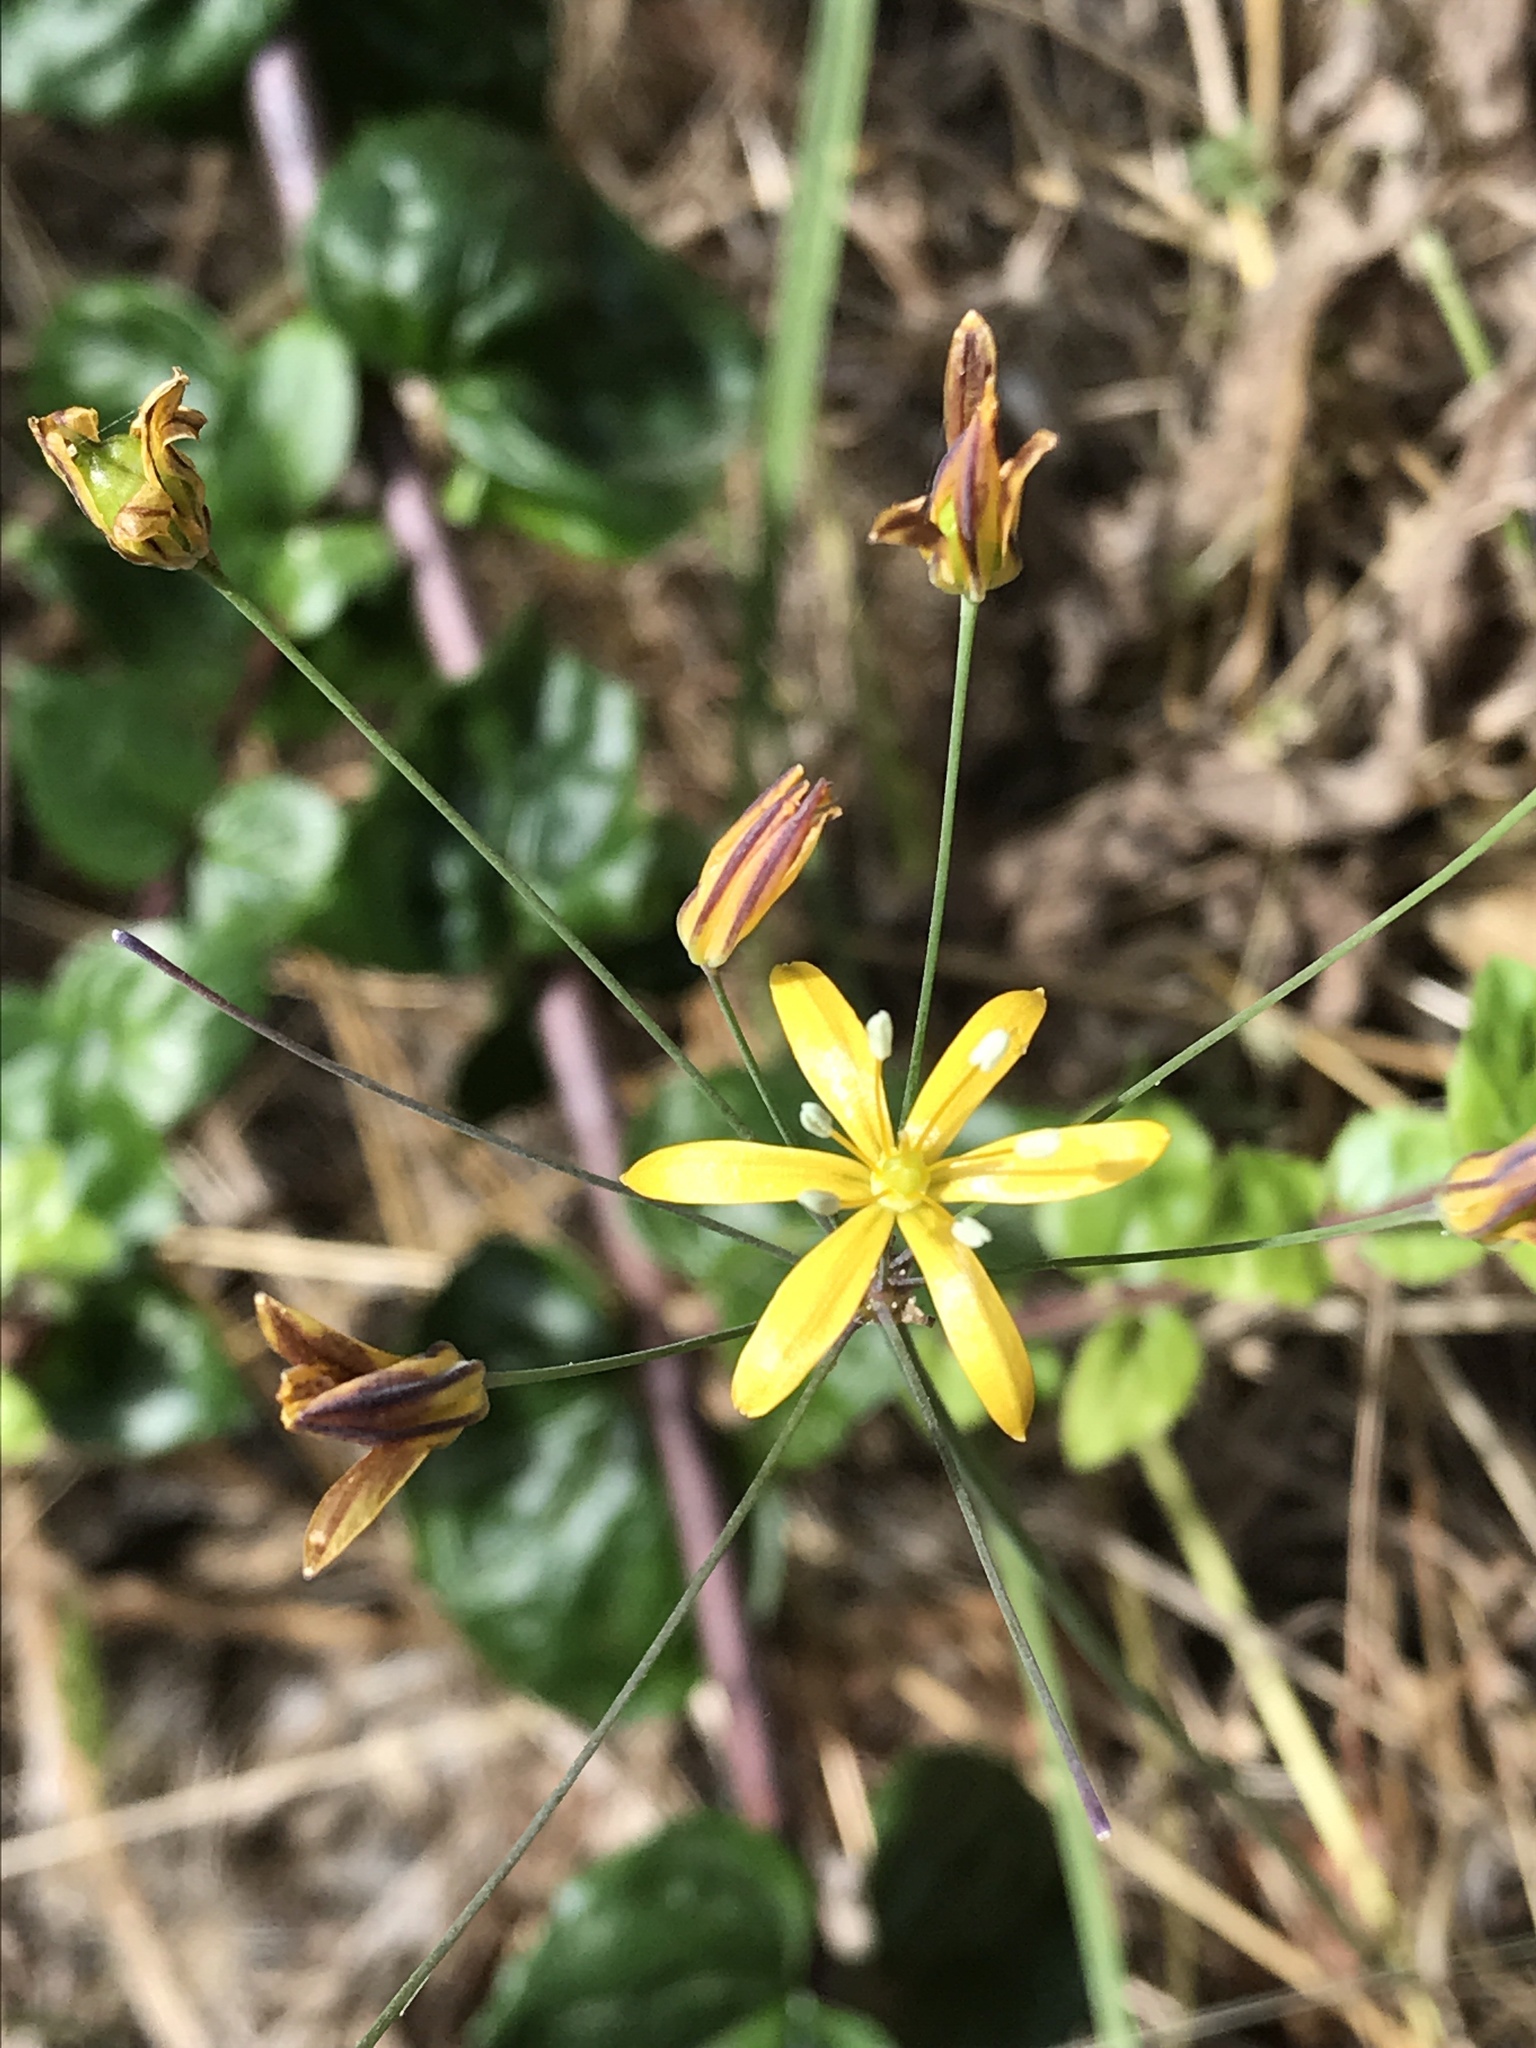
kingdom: Plantae
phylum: Tracheophyta
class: Liliopsida
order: Asparagales
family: Asparagaceae
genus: Bloomeria
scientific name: Bloomeria crocea
